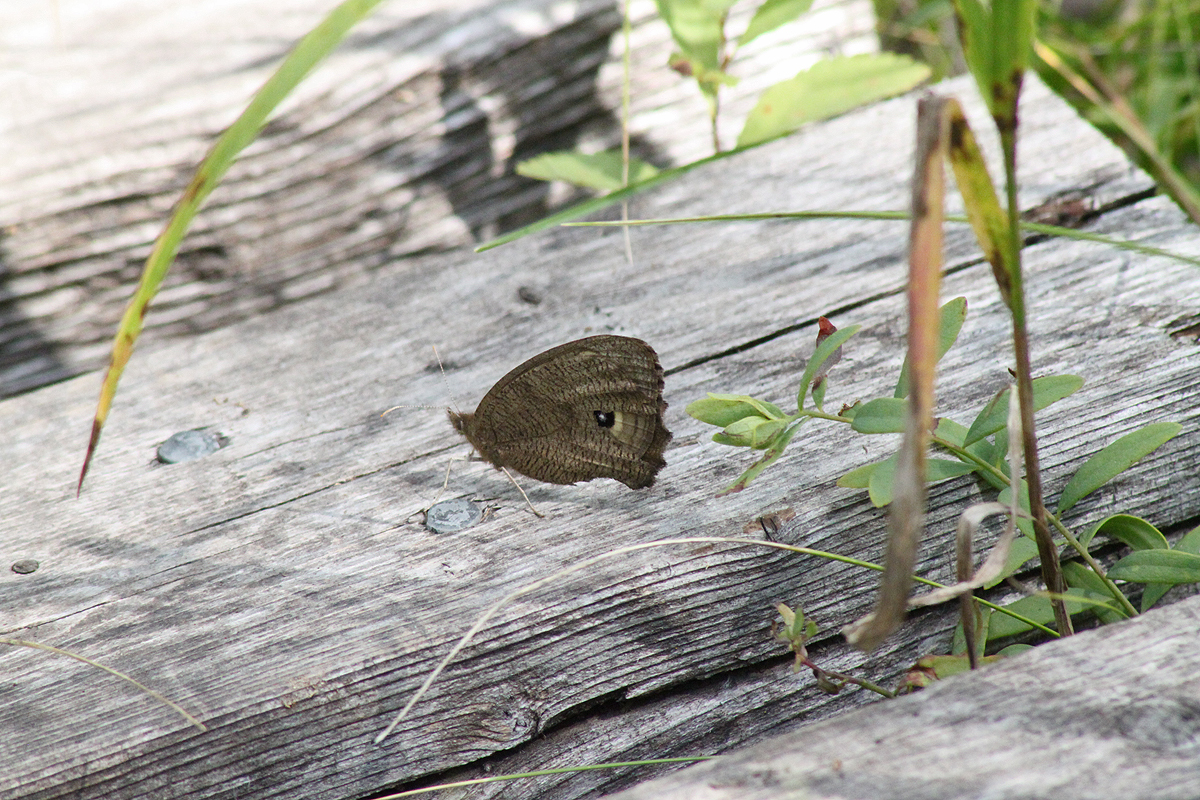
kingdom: Animalia
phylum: Arthropoda
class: Insecta
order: Lepidoptera
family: Nymphalidae
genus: Cercyonis
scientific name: Cercyonis pegala
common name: Common wood-nymph
